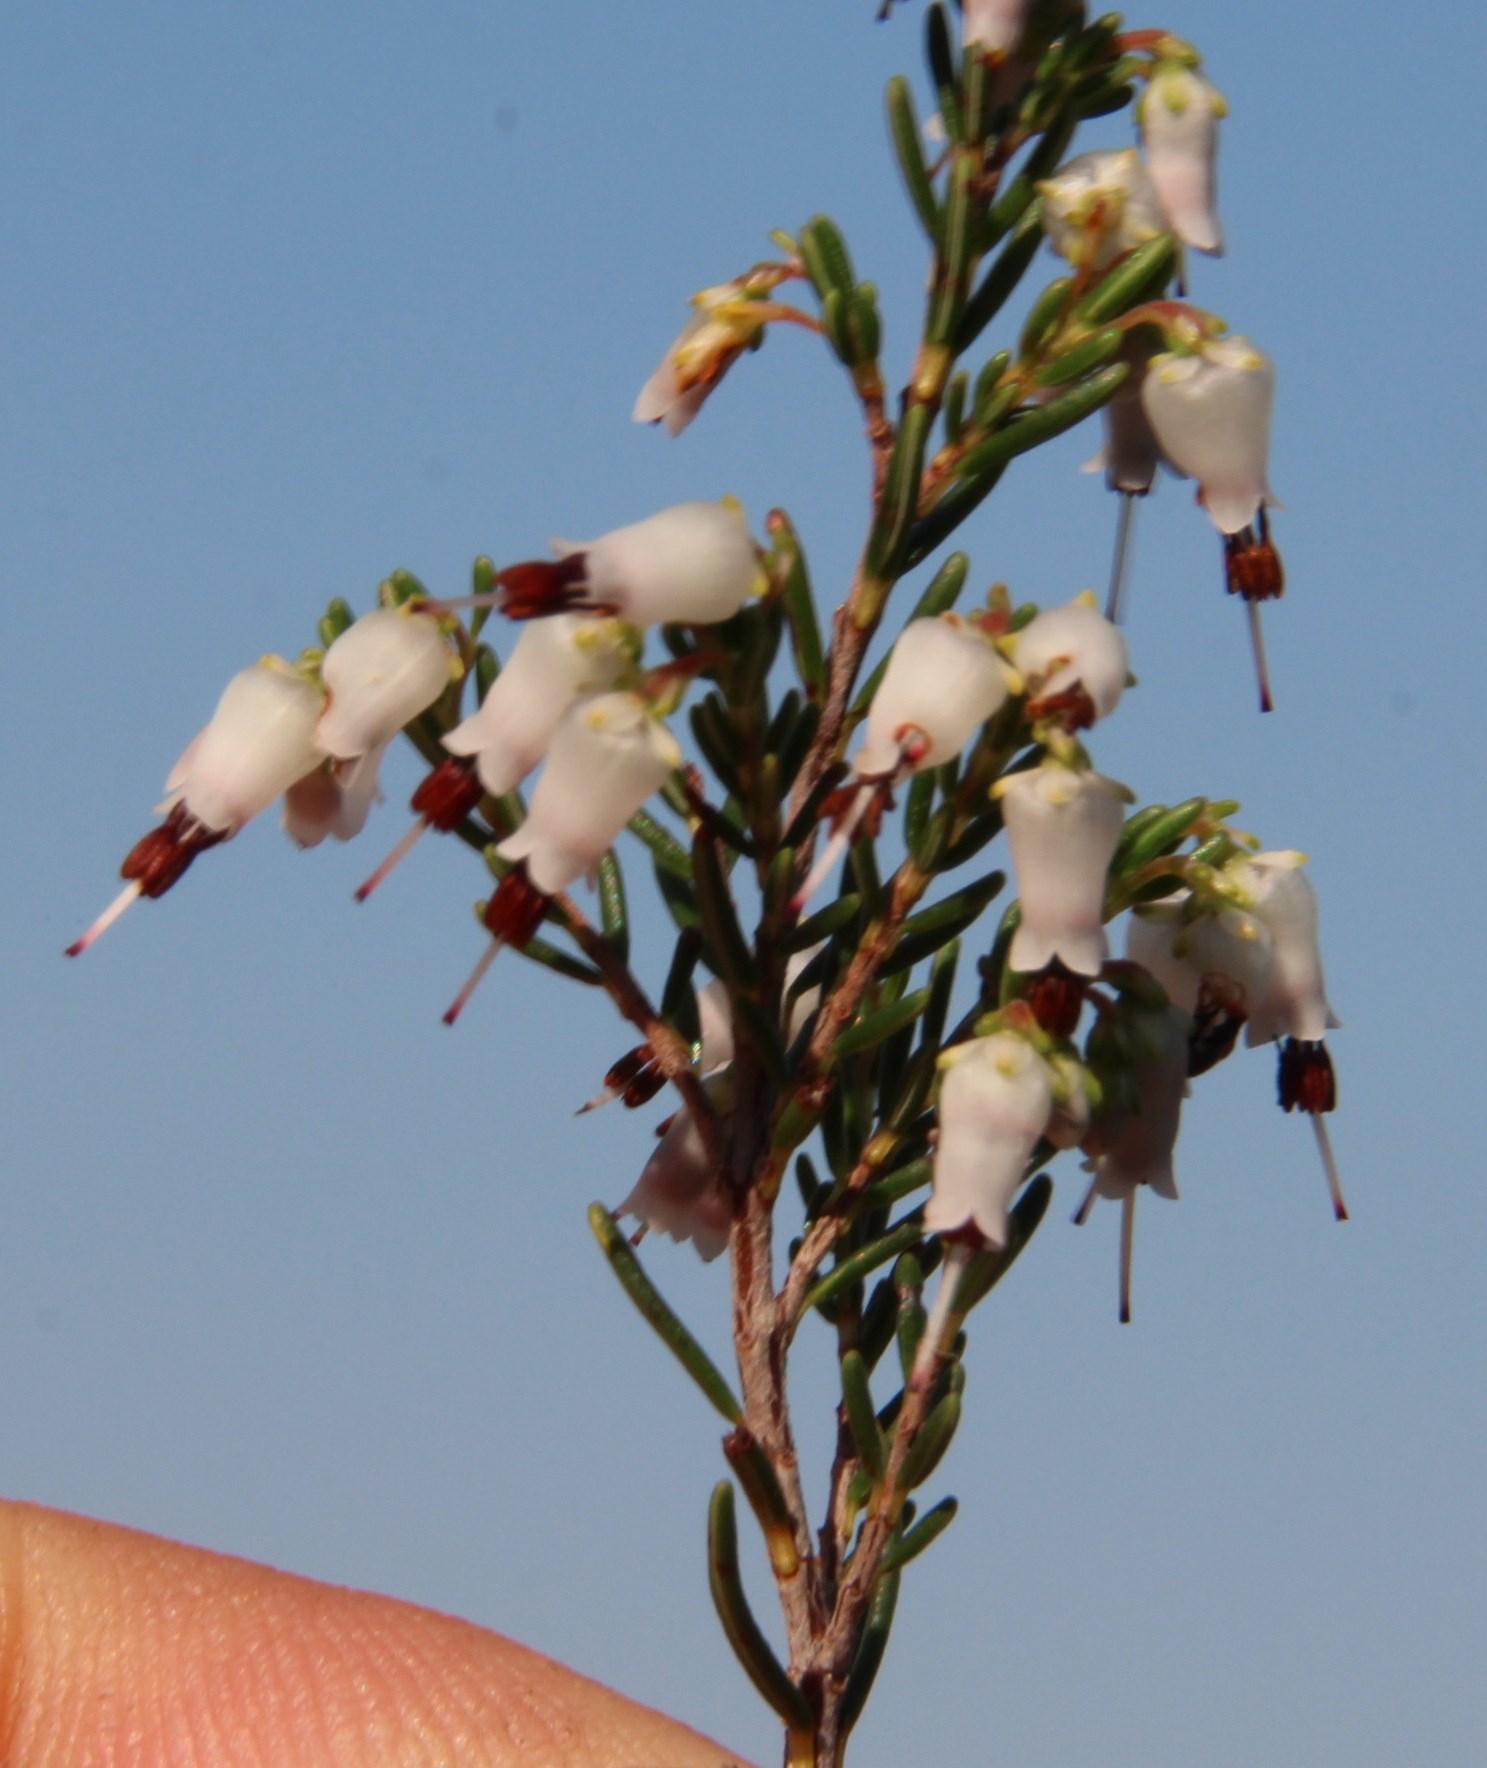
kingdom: Plantae
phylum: Tracheophyta
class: Magnoliopsida
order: Ericales
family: Ericaceae
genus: Erica
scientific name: Erica trivialis
